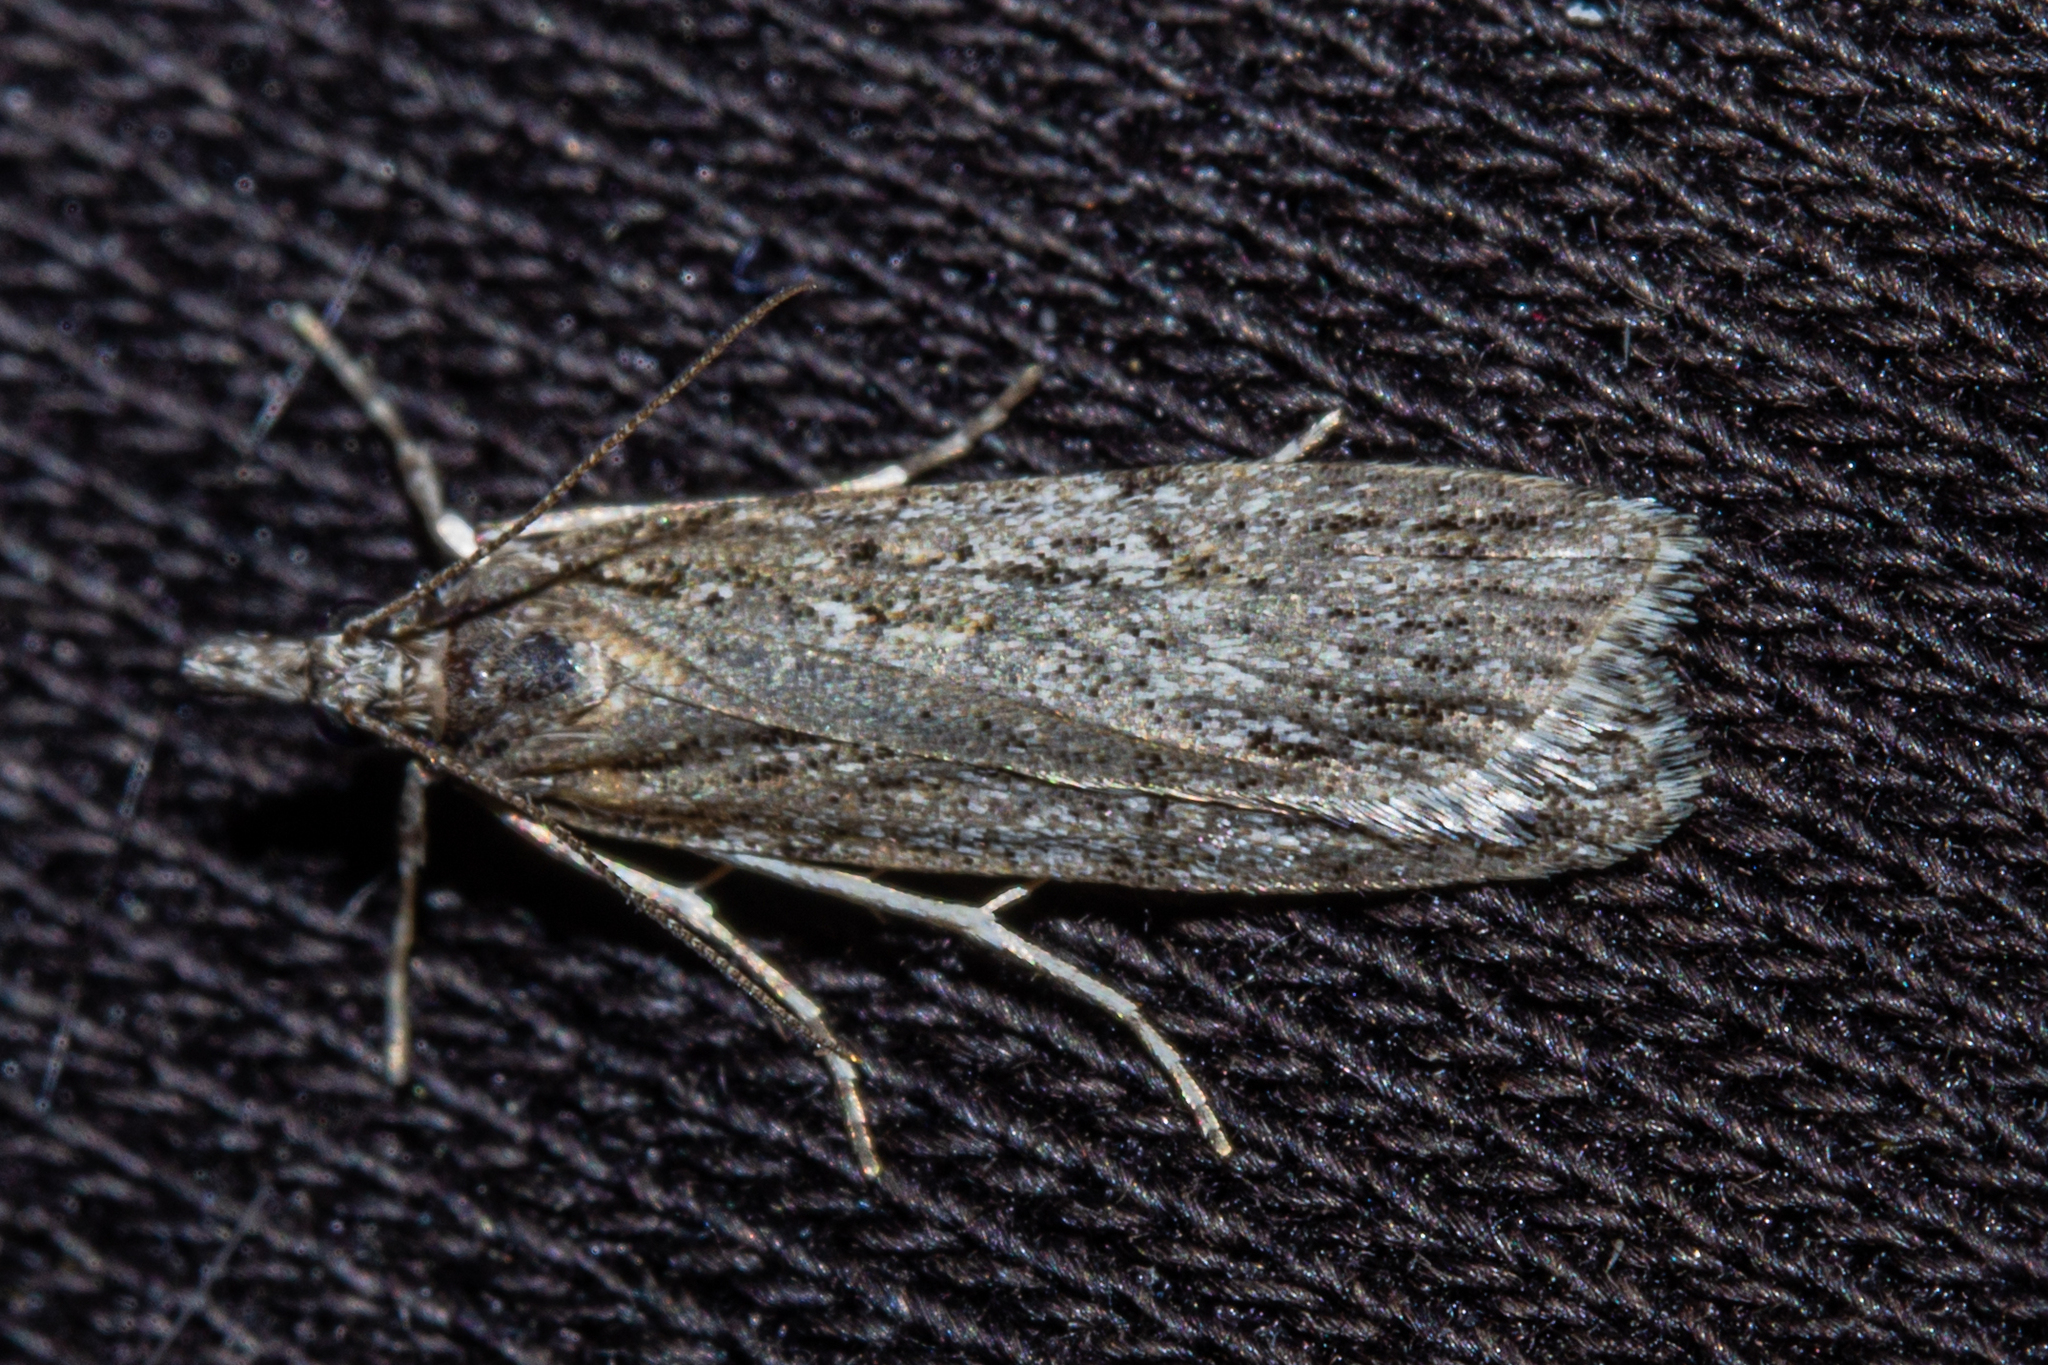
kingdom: Animalia
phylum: Arthropoda
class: Insecta
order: Lepidoptera
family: Crambidae
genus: Scoparia
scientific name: Scoparia chalicodes
